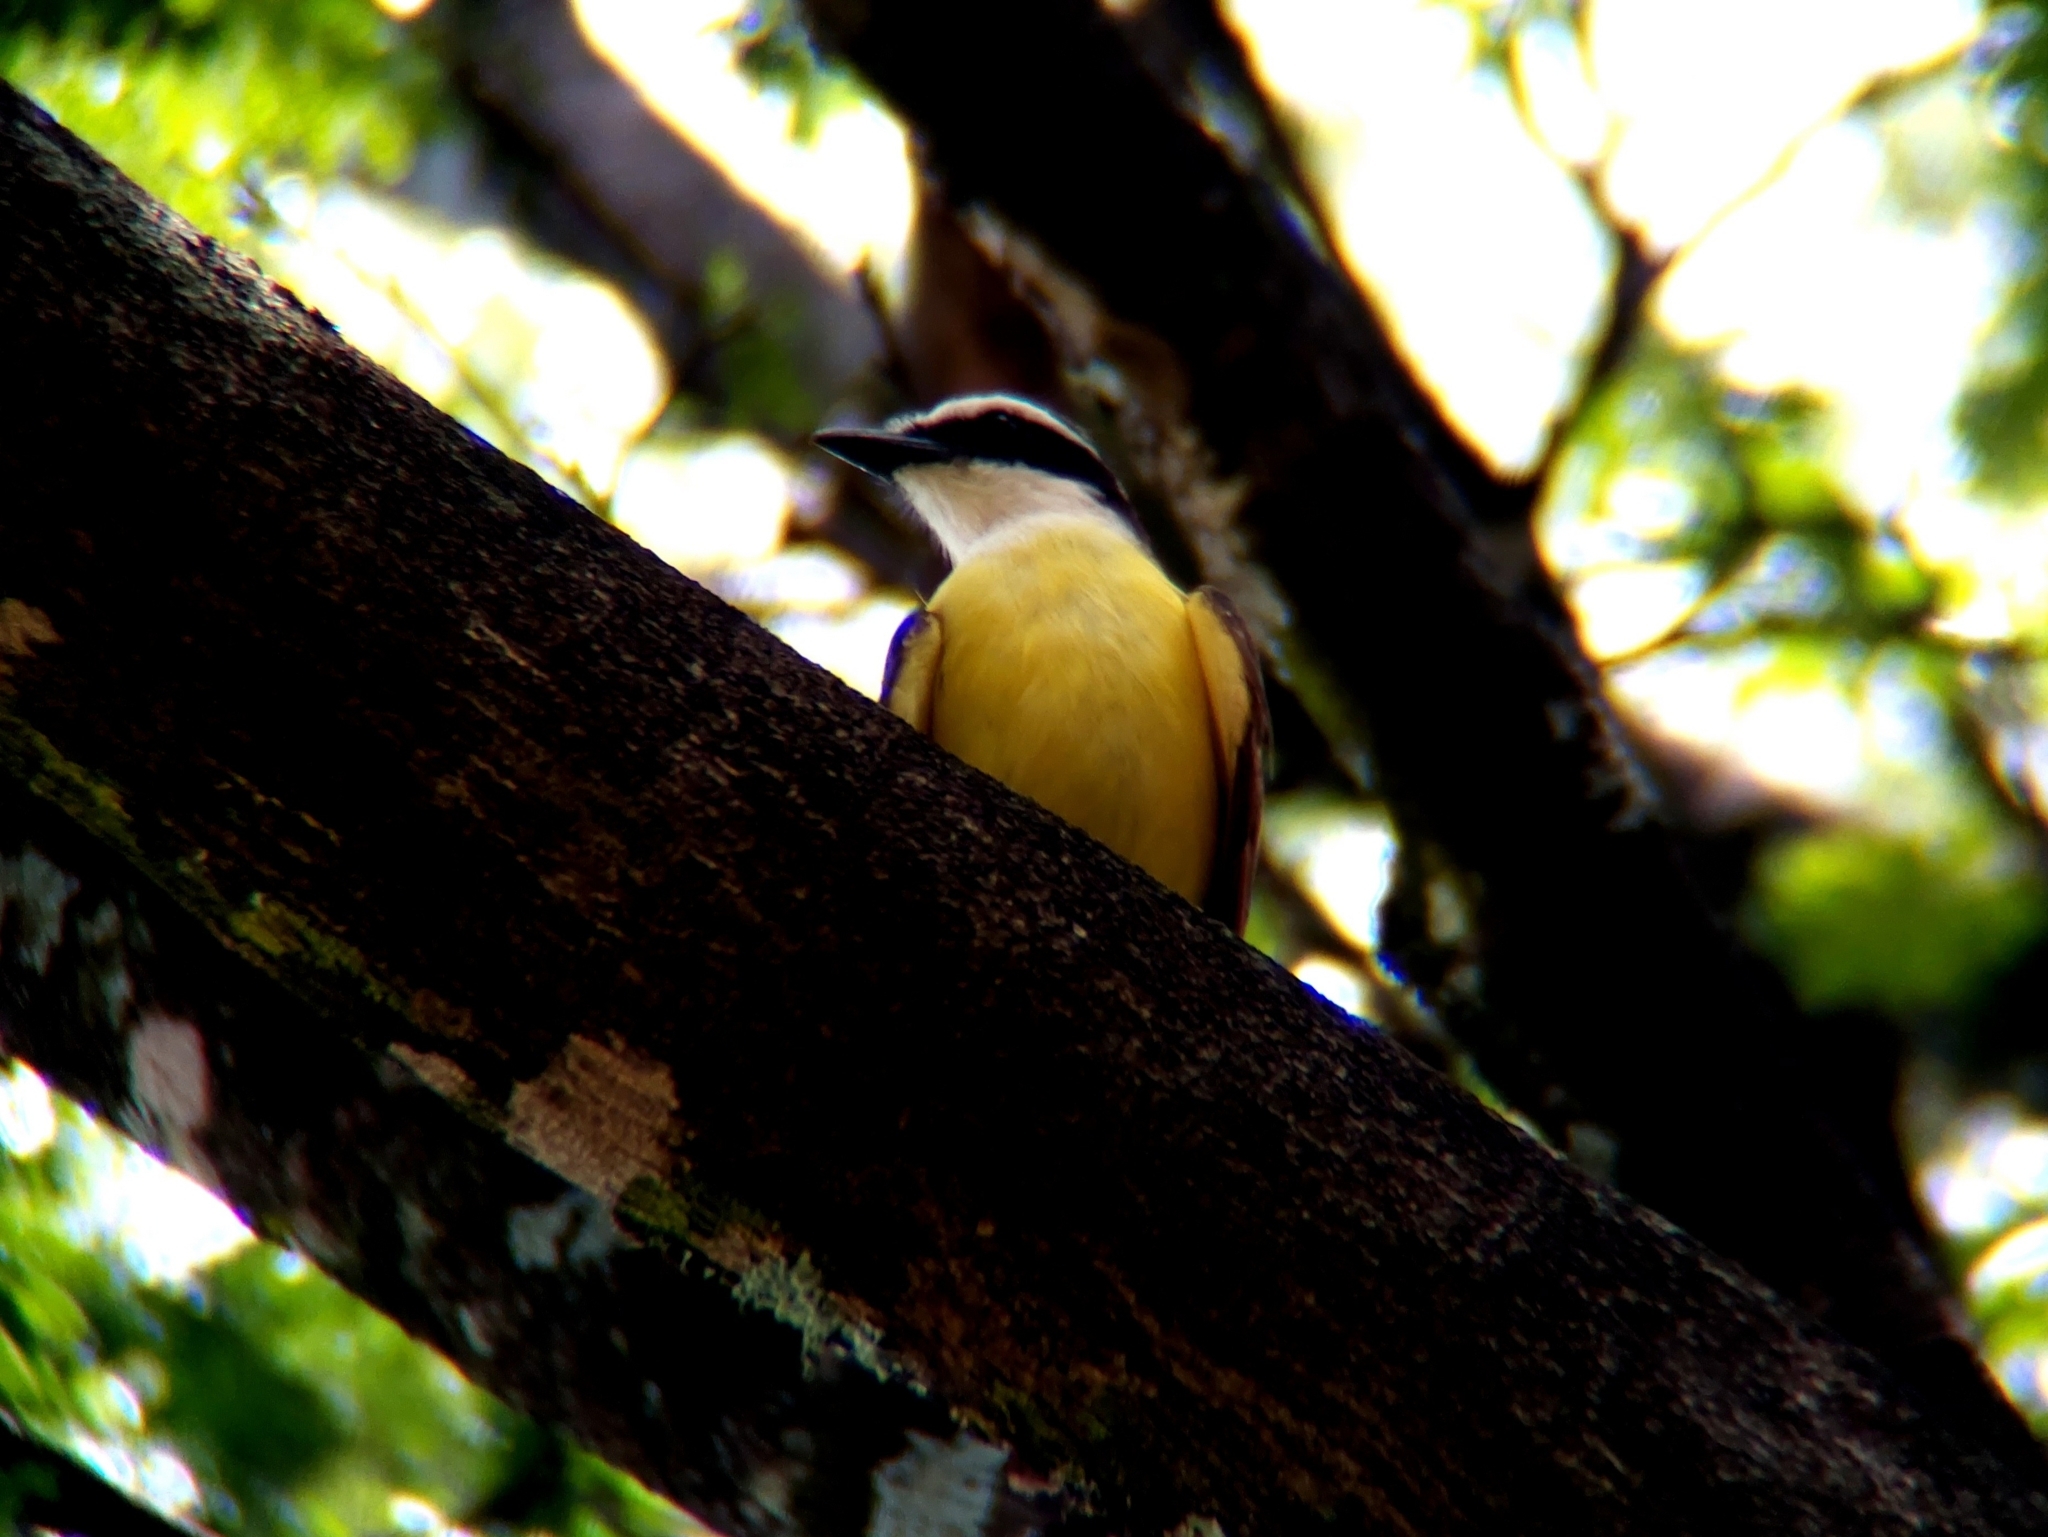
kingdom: Animalia
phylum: Chordata
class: Aves
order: Passeriformes
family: Tyrannidae
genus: Pitangus
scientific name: Pitangus sulphuratus
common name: Great kiskadee
